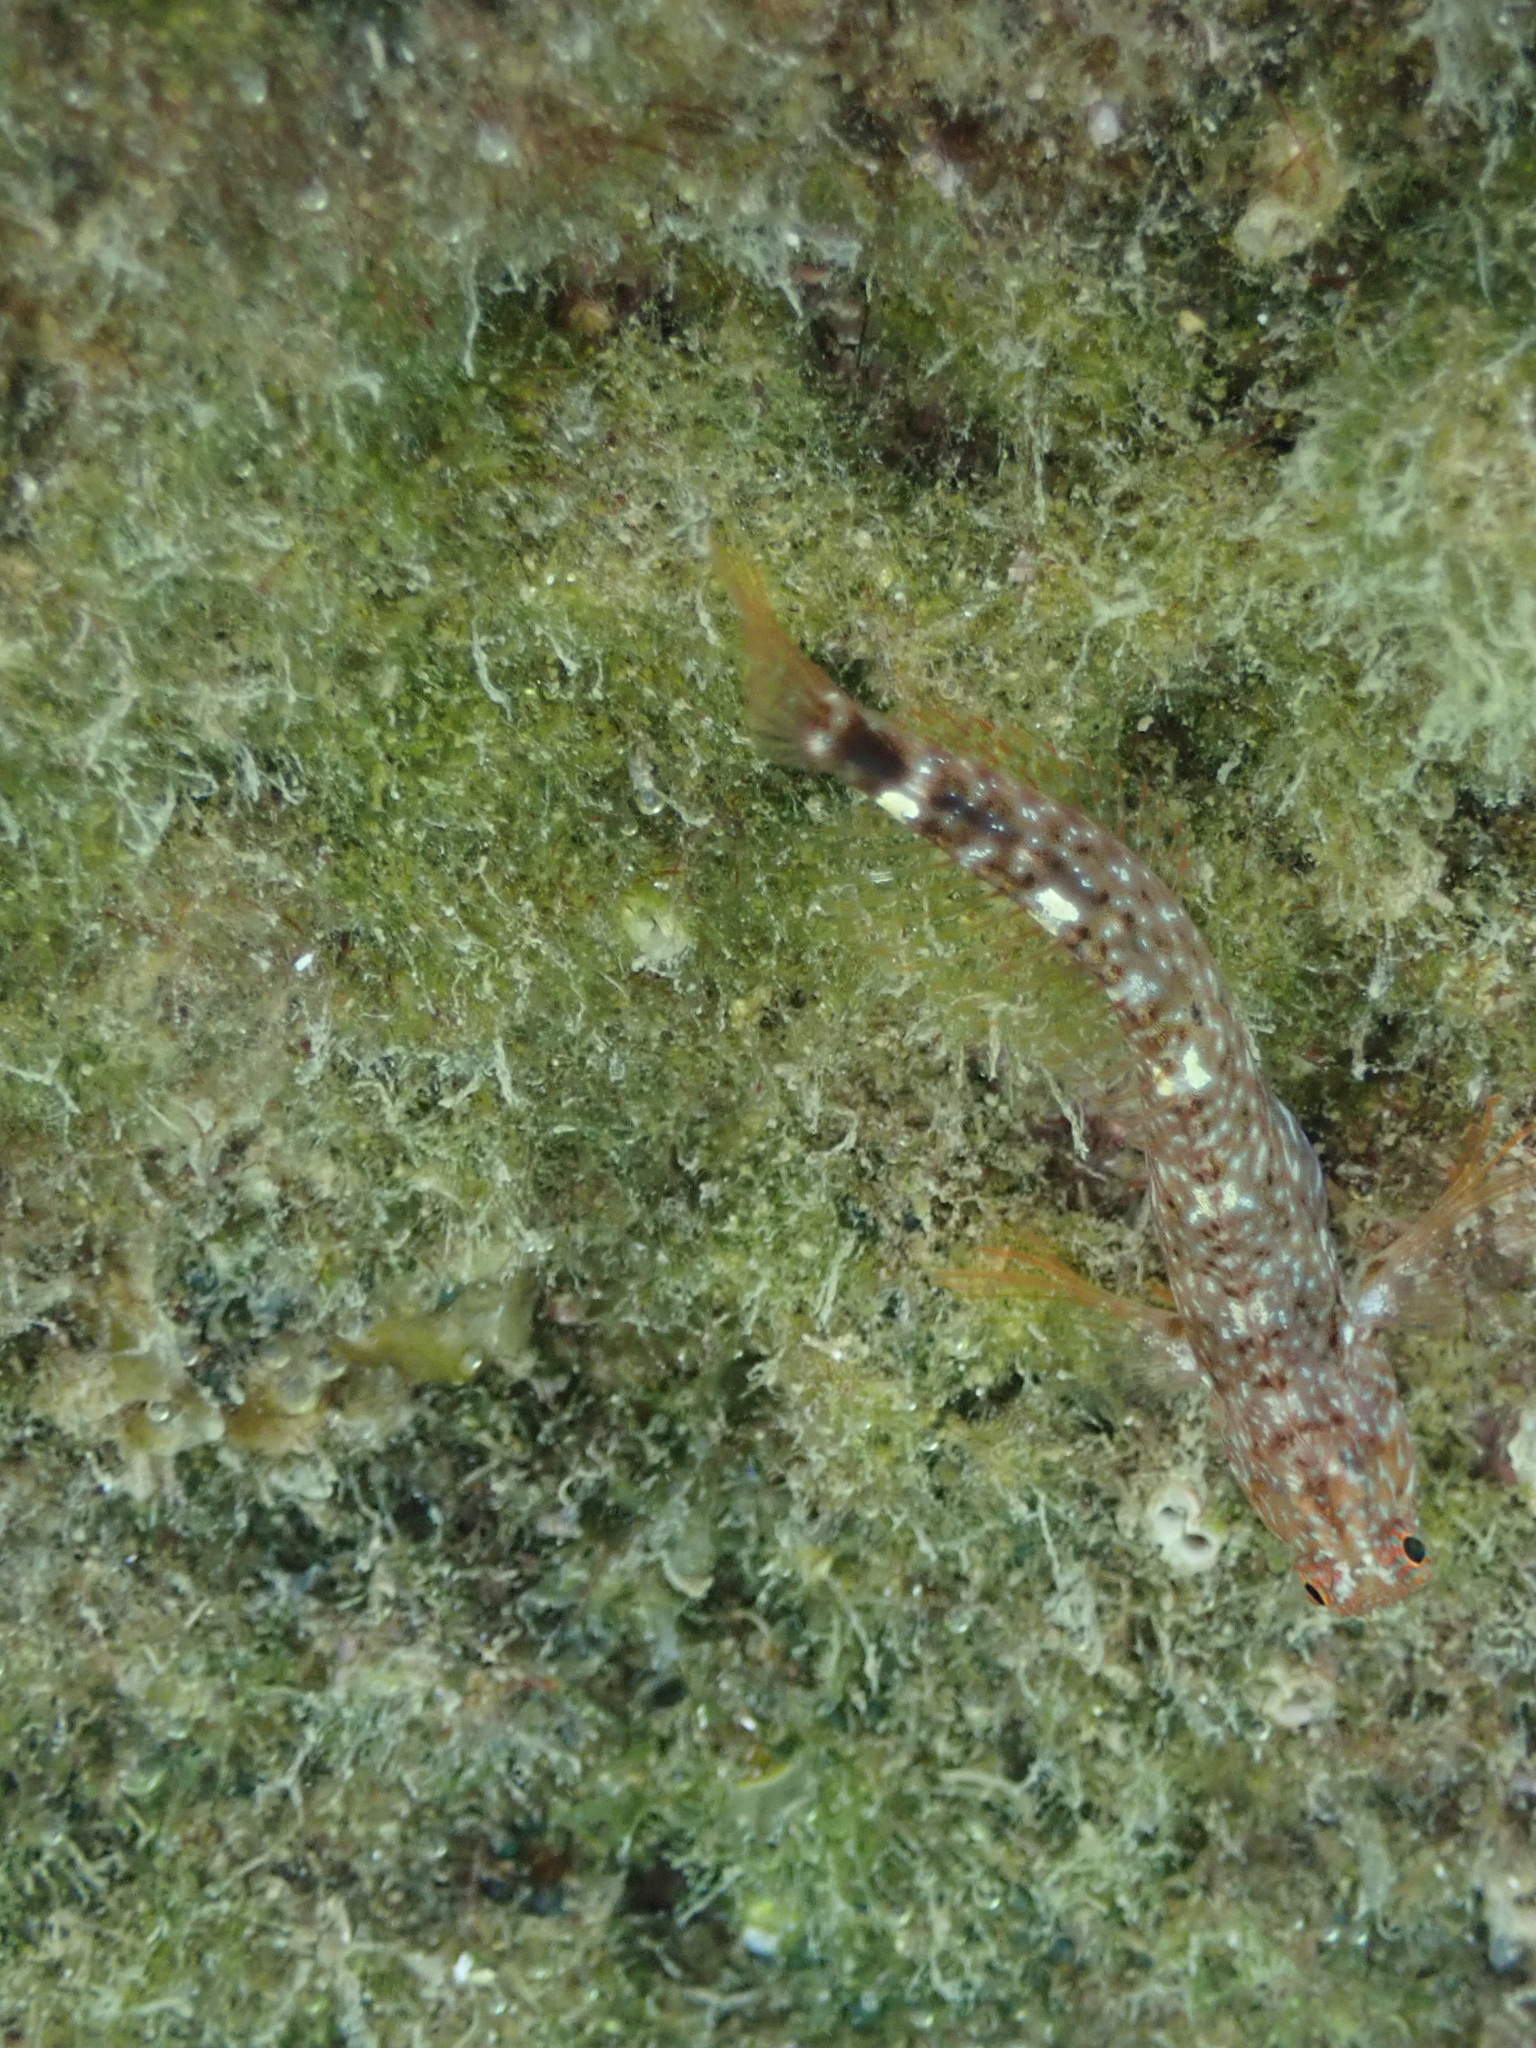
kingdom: Animalia
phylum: Chordata
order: Perciformes
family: Blenniidae
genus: Parablennius
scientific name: Parablennius zvonimiri
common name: Red blenny
